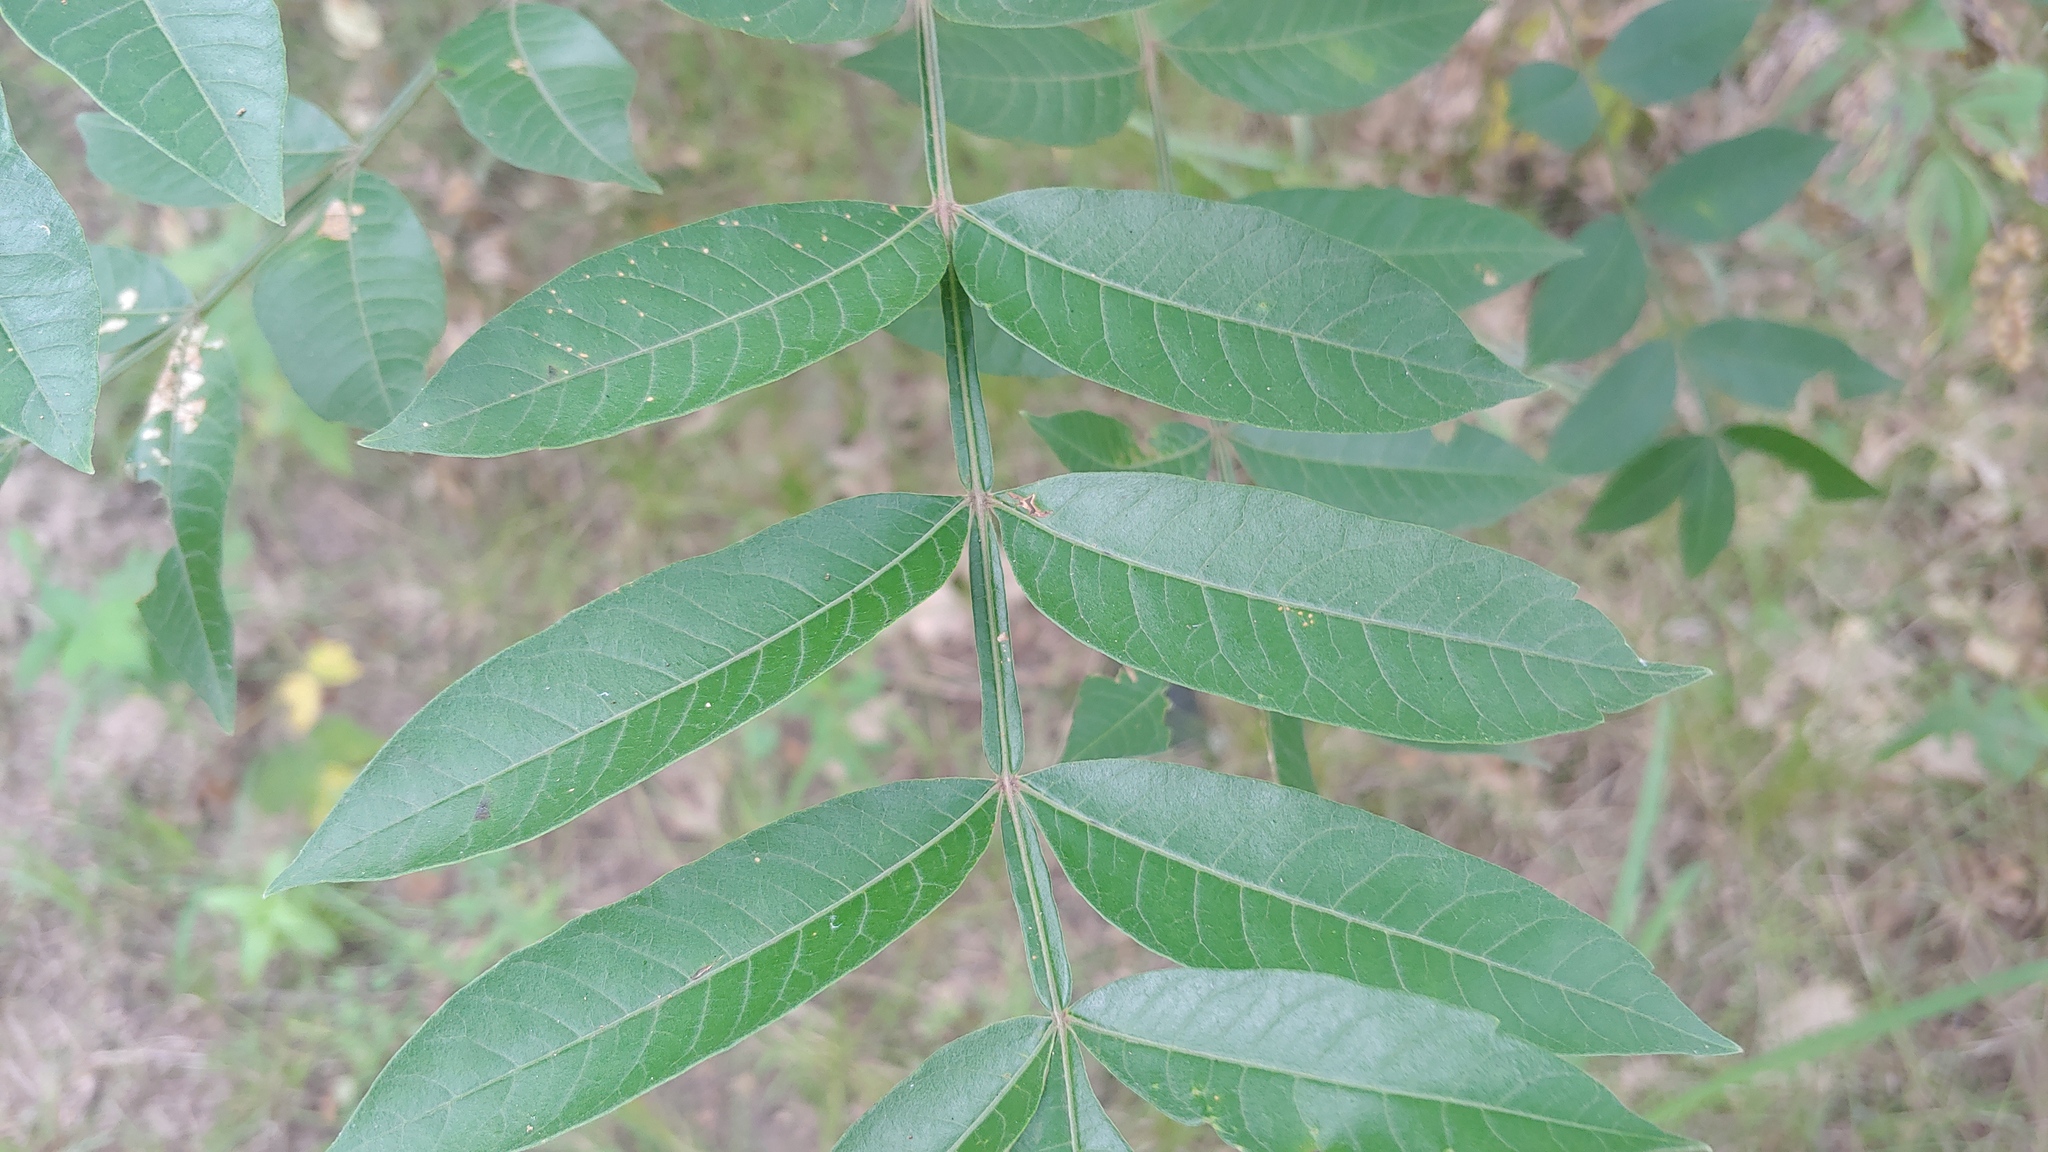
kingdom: Plantae
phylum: Tracheophyta
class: Magnoliopsida
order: Sapindales
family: Anacardiaceae
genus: Rhus
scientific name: Rhus copallina
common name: Shining sumac
